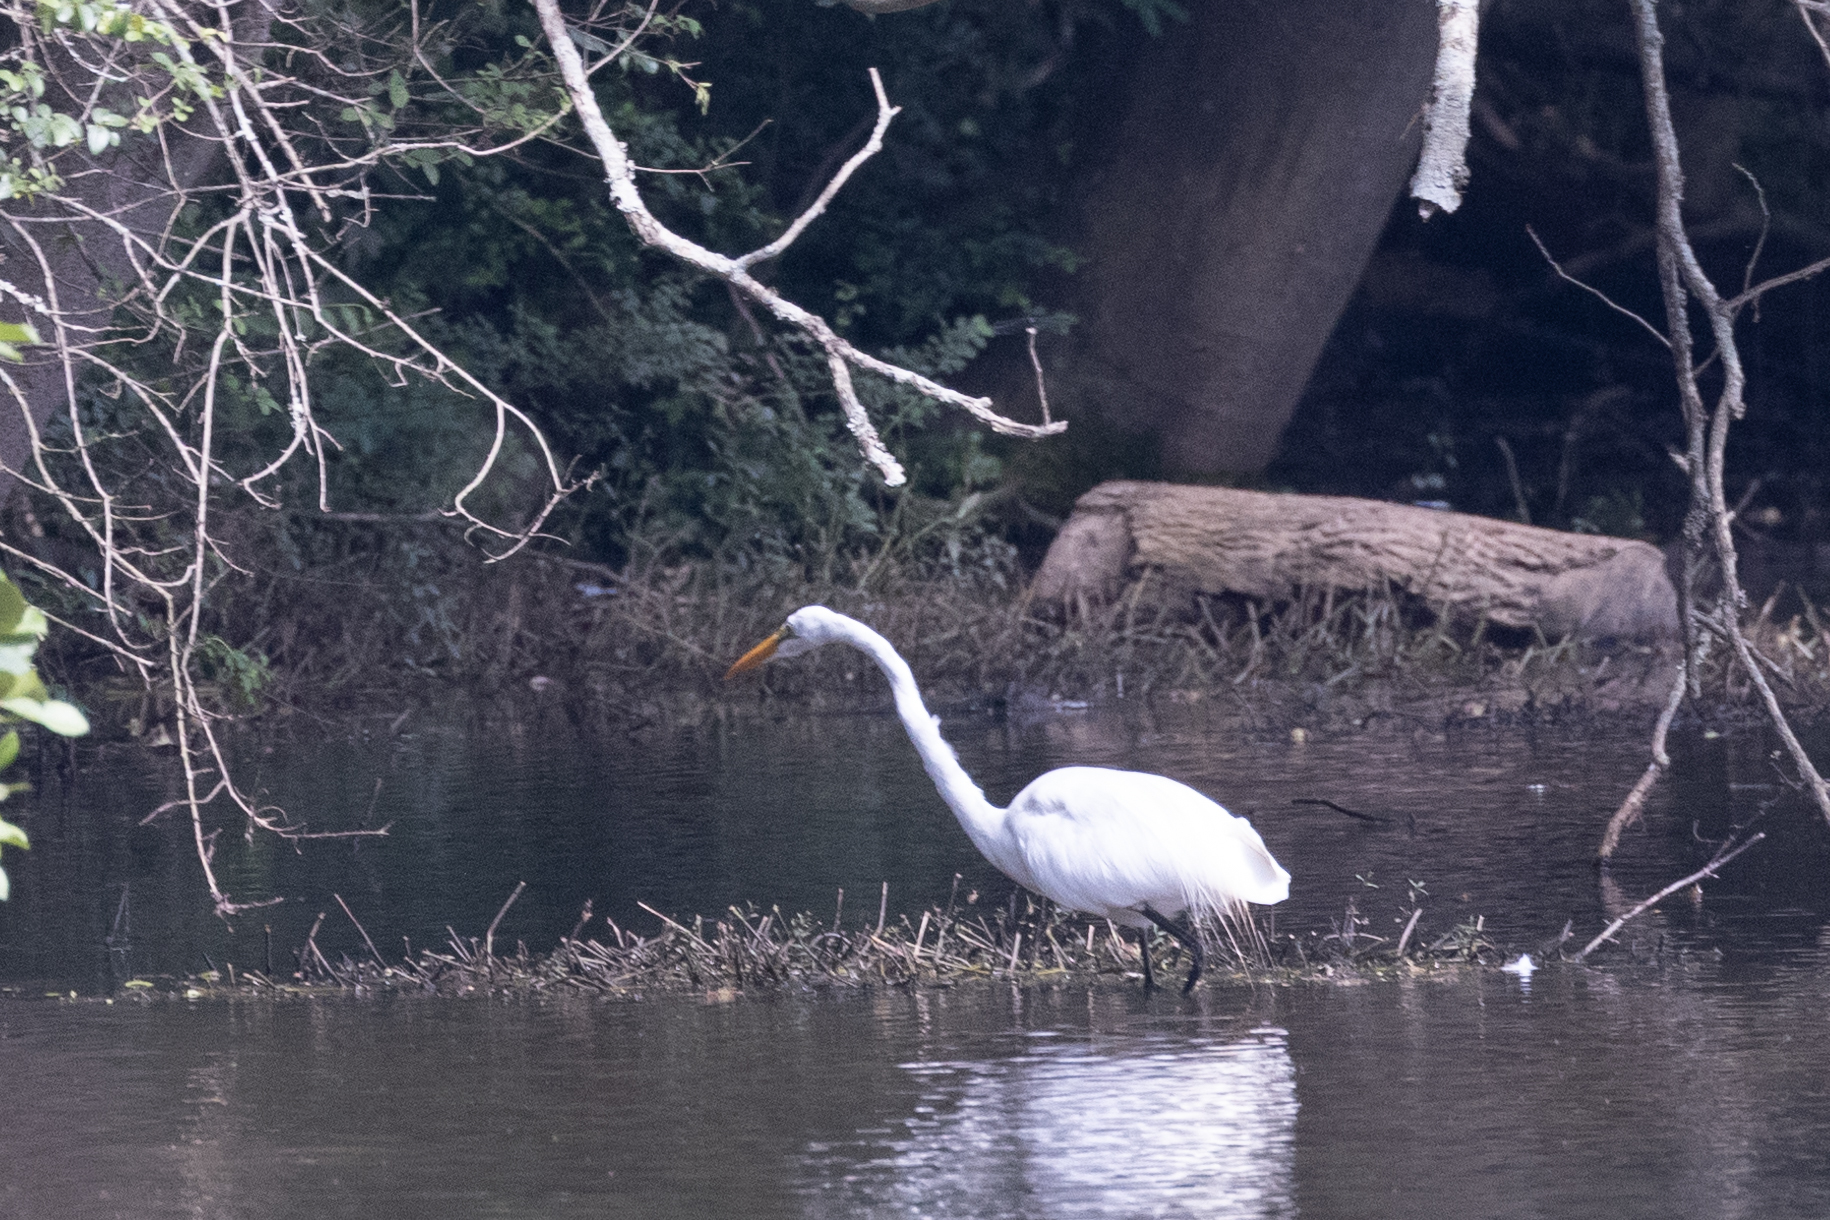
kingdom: Animalia
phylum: Chordata
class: Aves
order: Pelecaniformes
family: Ardeidae
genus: Ardea
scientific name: Ardea alba
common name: Great egret
